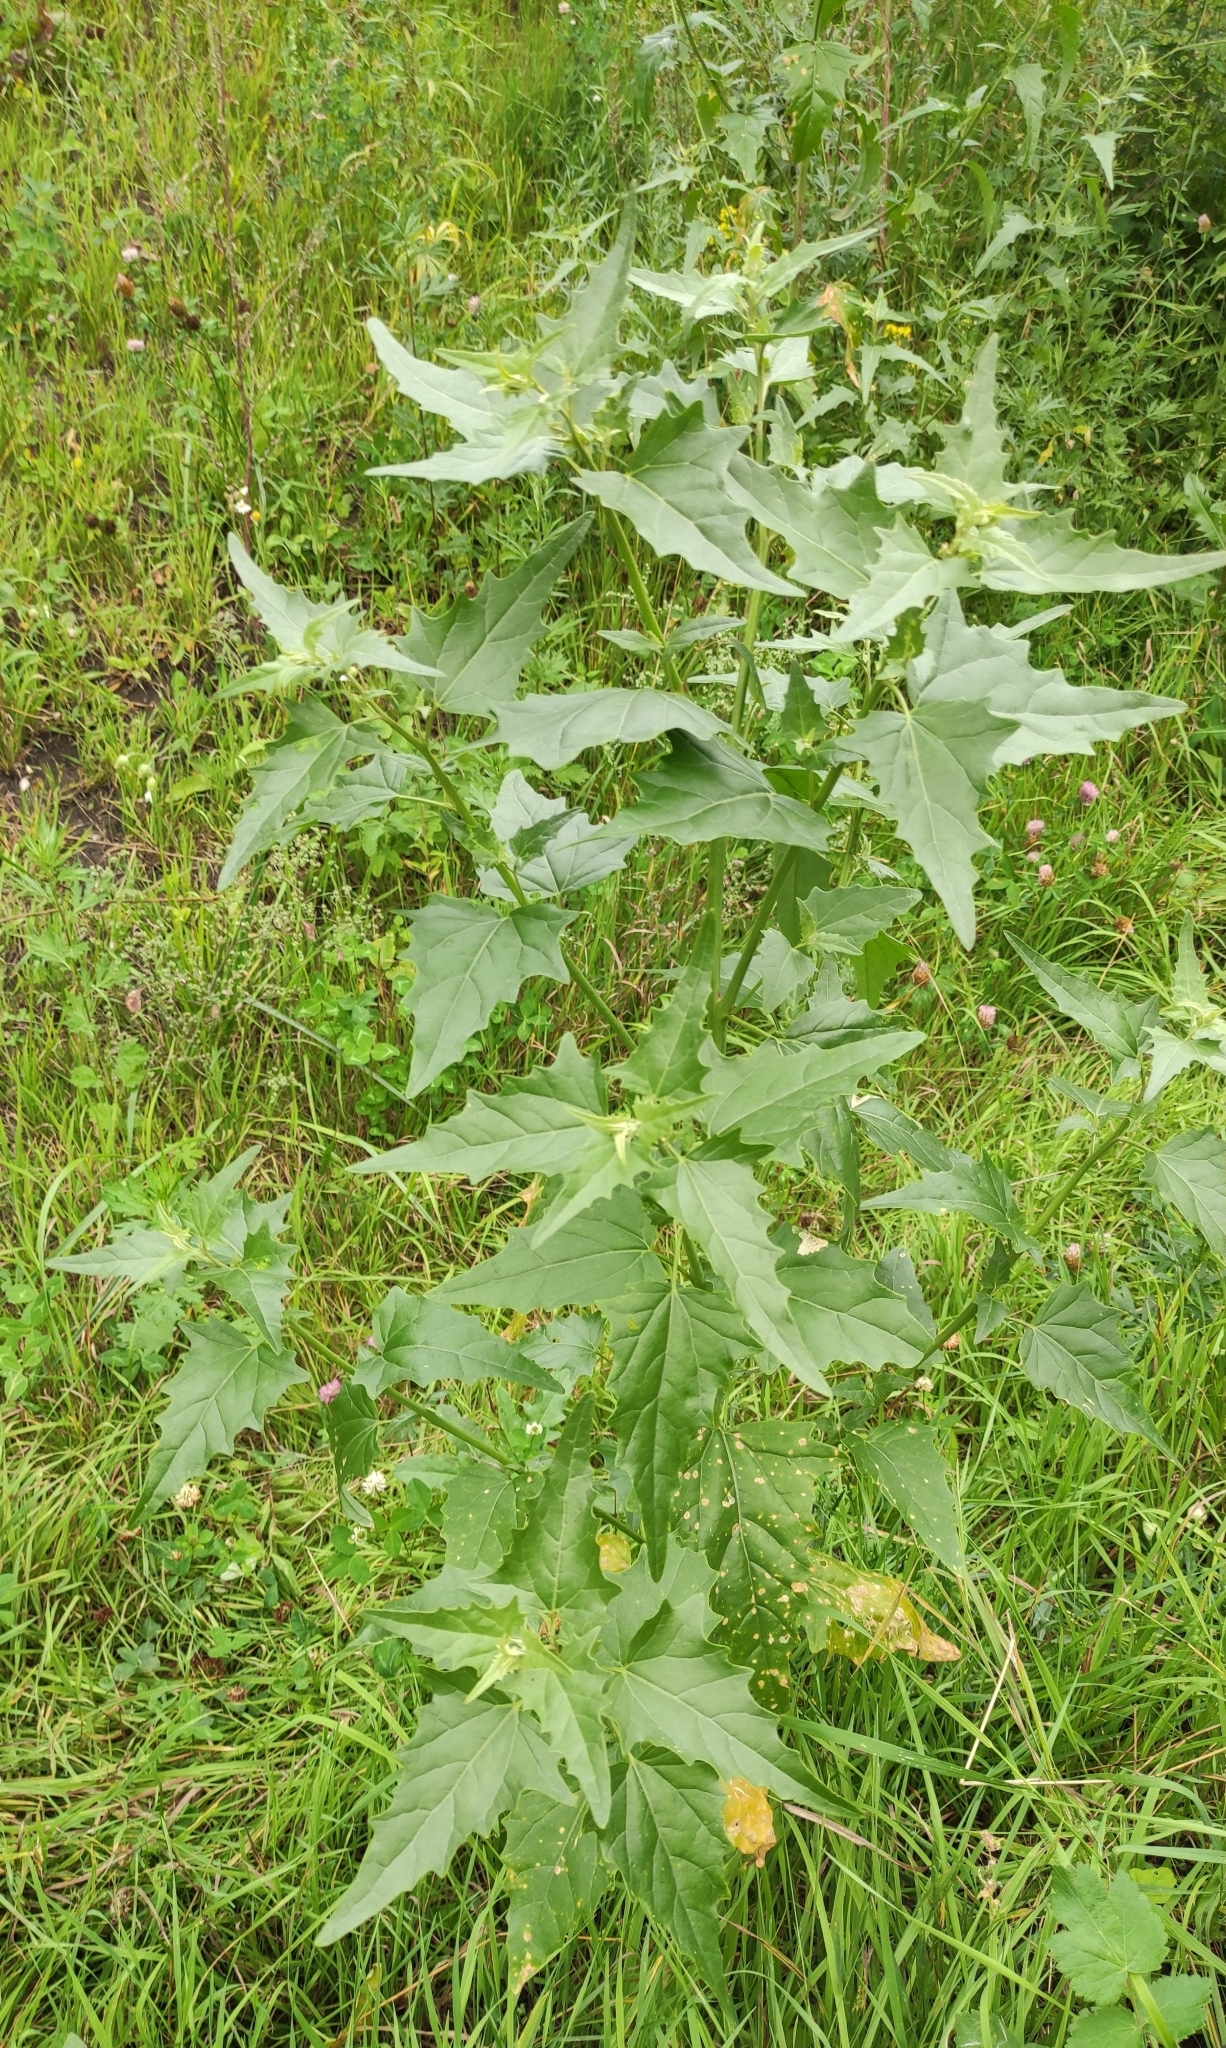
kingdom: Plantae
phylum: Tracheophyta
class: Magnoliopsida
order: Caryophyllales
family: Amaranthaceae
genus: Atriplex
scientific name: Atriplex sagittata
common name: Purple orache
